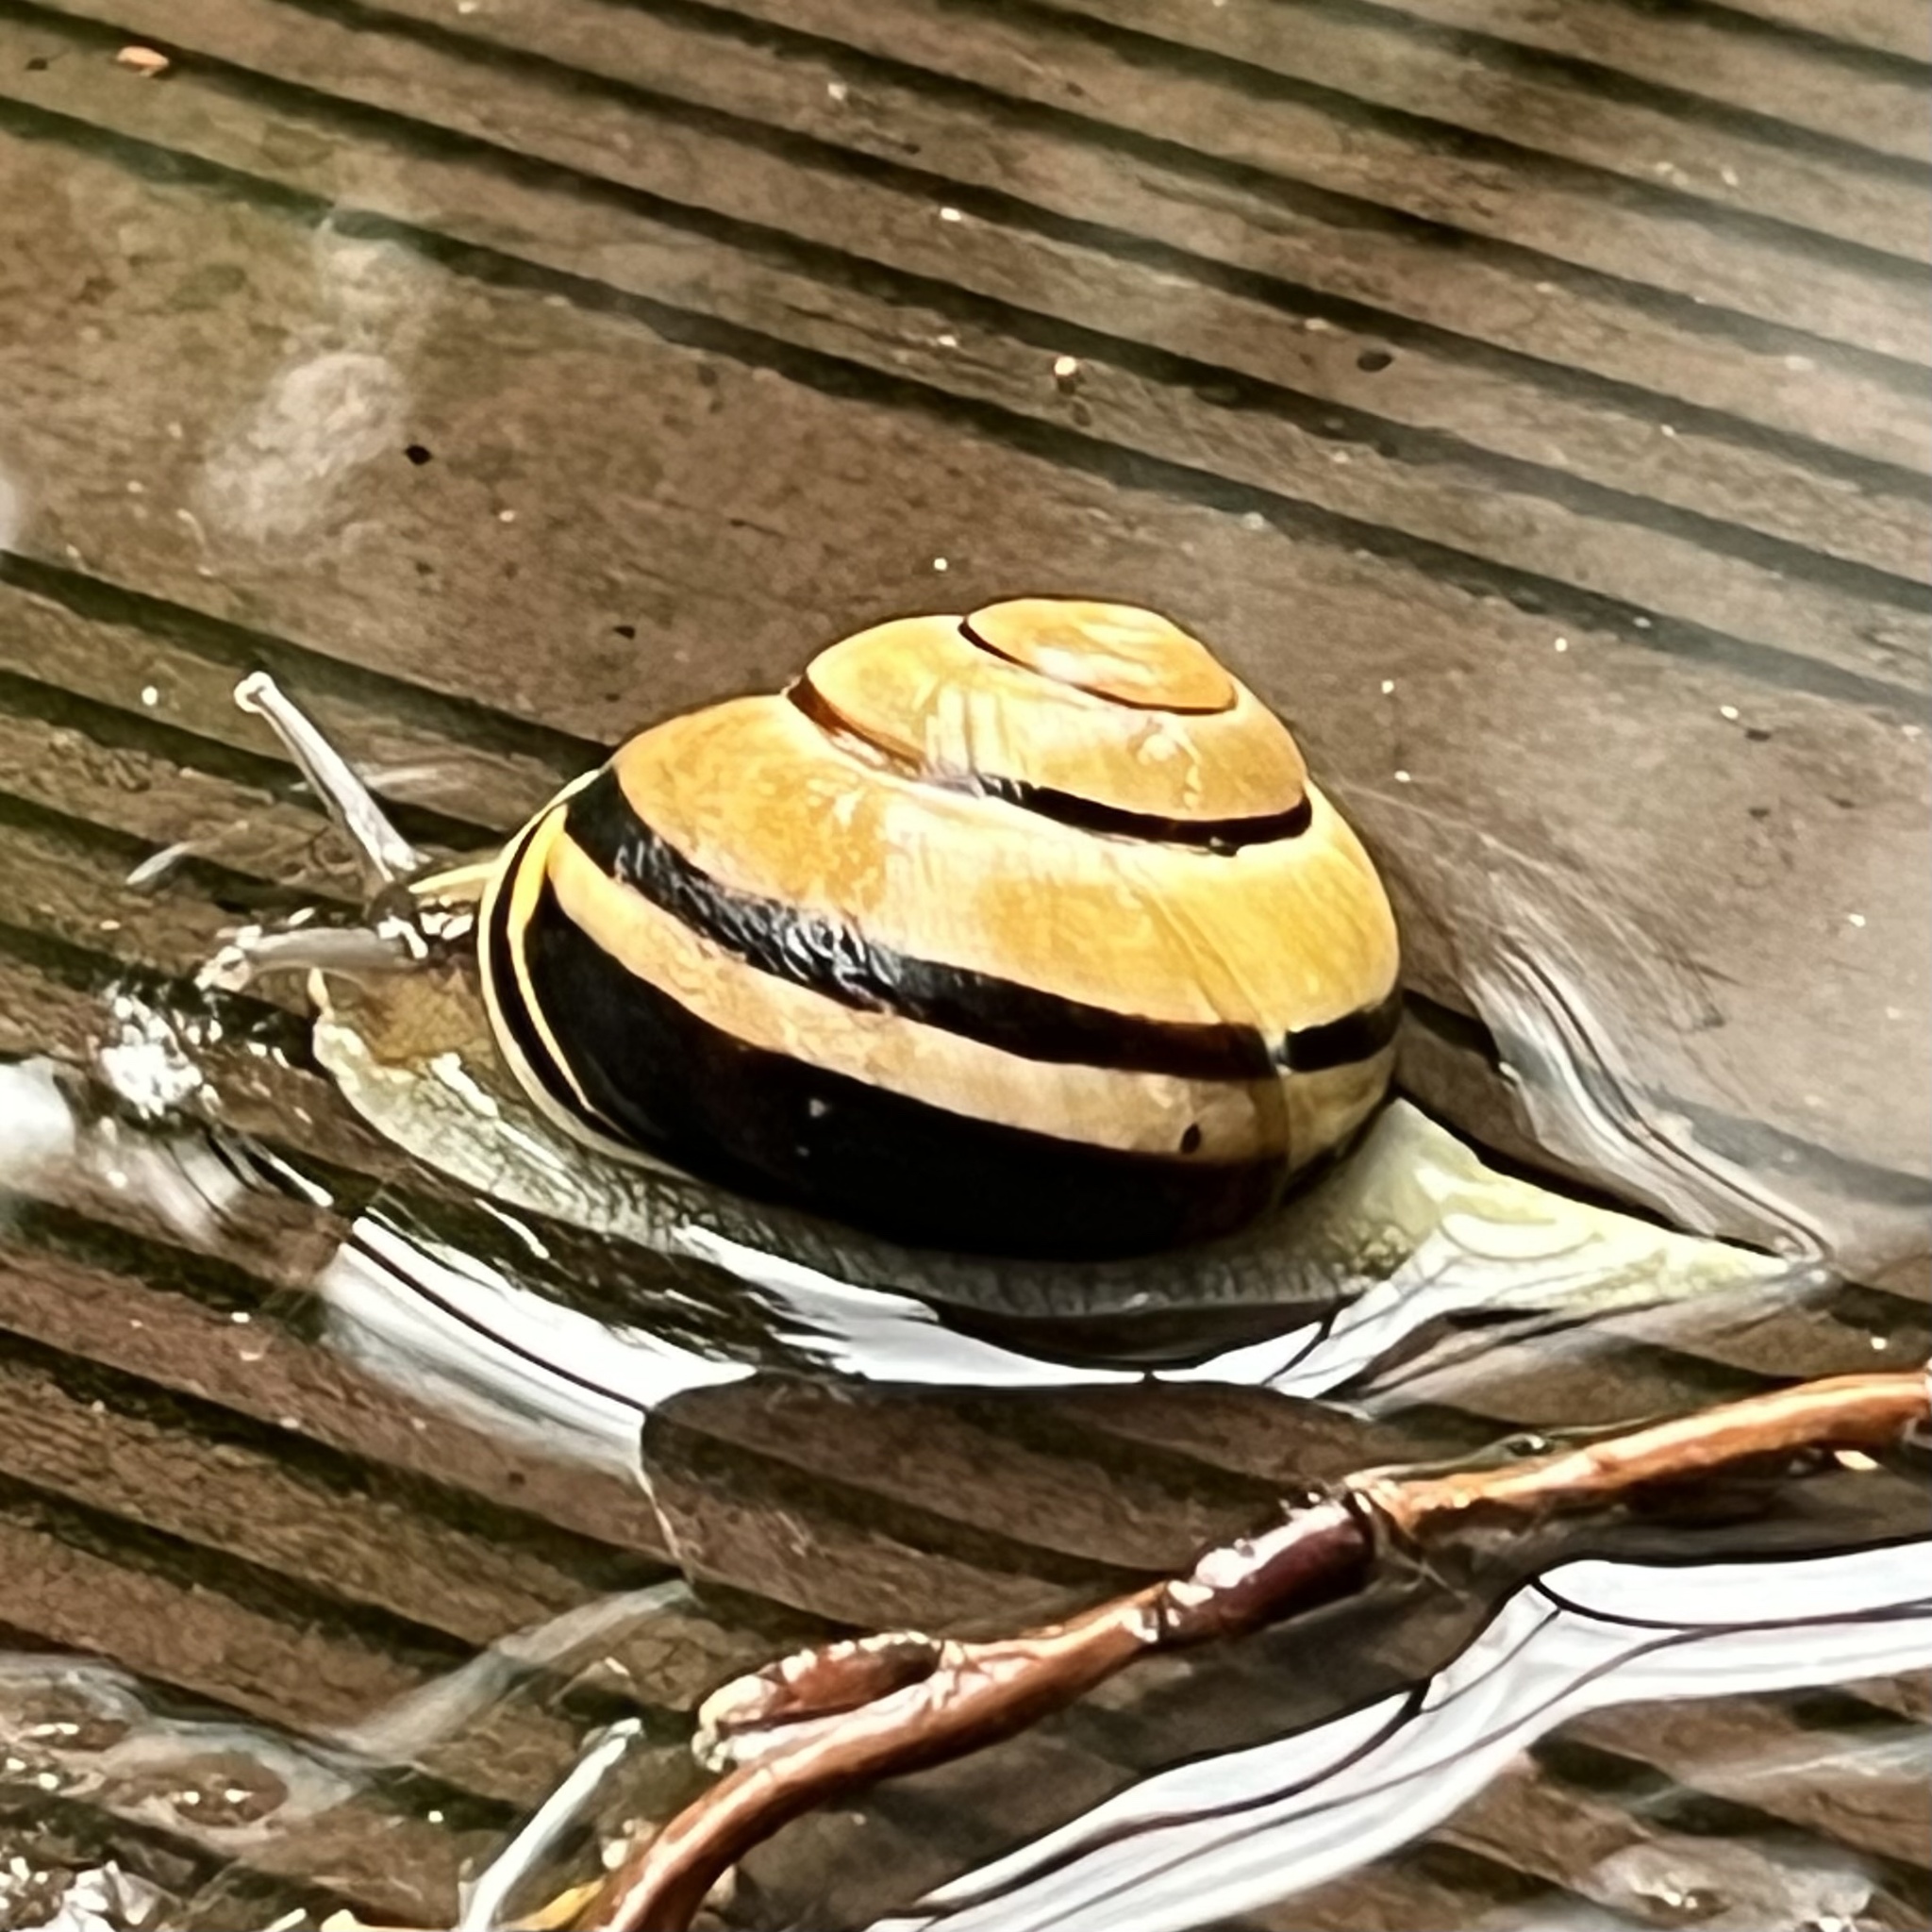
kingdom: Animalia
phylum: Mollusca
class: Gastropoda
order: Stylommatophora
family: Helicidae
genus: Cepaea
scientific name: Cepaea nemoralis
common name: Grovesnail
